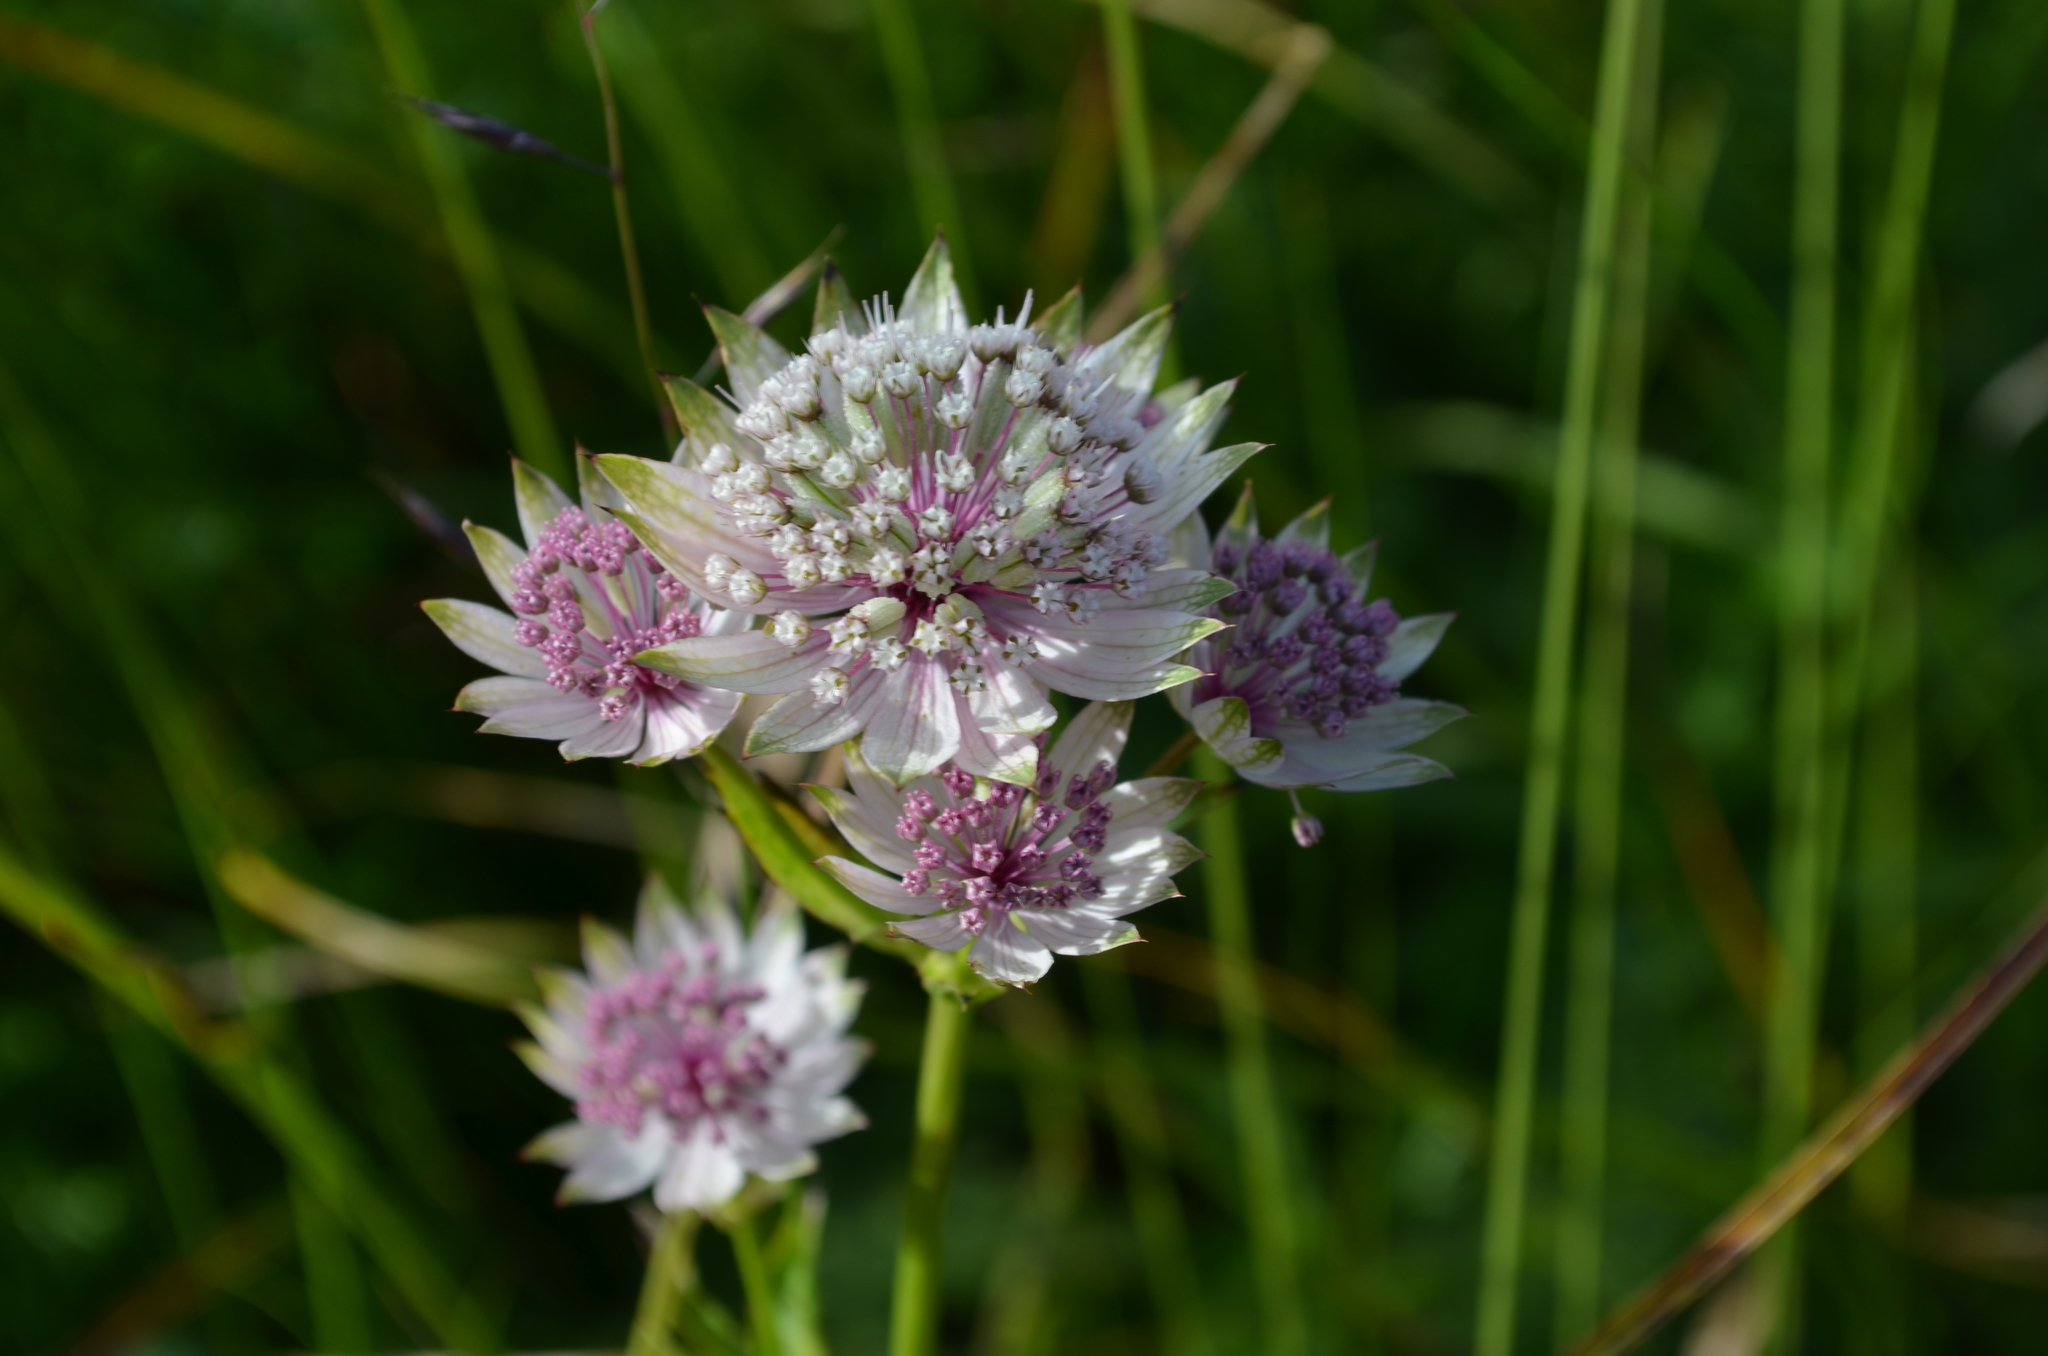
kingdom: Plantae
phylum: Tracheophyta
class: Magnoliopsida
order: Apiales
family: Apiaceae
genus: Astrantia
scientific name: Astrantia major
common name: Greater masterwort
